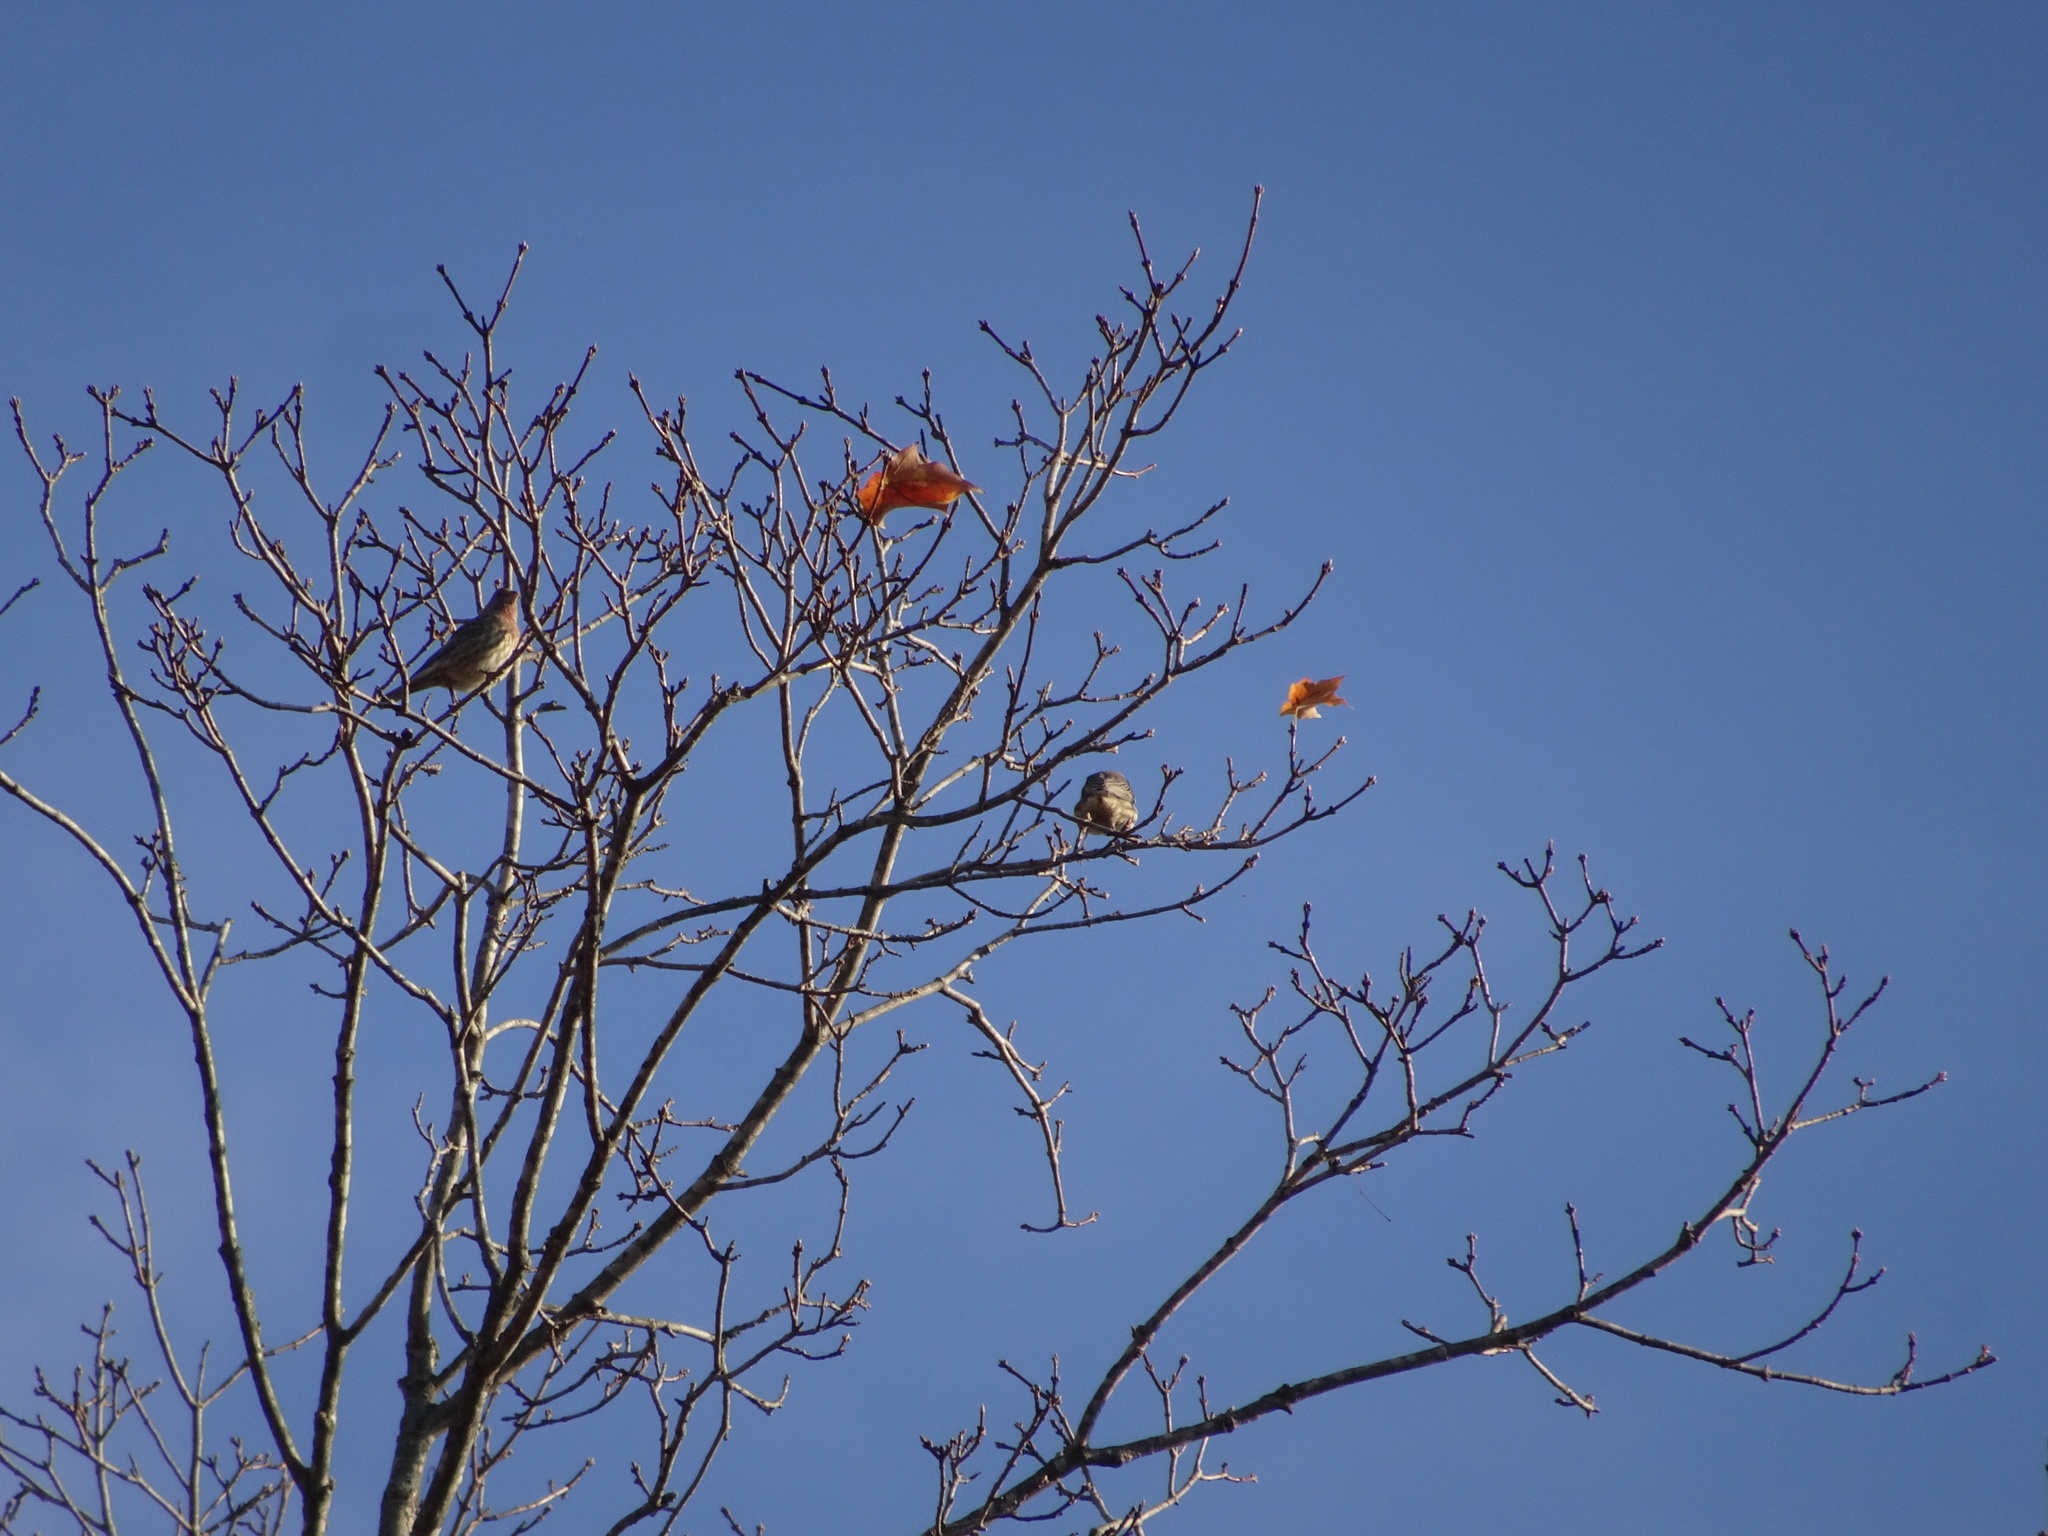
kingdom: Animalia
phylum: Chordata
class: Aves
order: Passeriformes
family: Fringillidae
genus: Haemorhous
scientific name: Haemorhous mexicanus
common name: House finch
